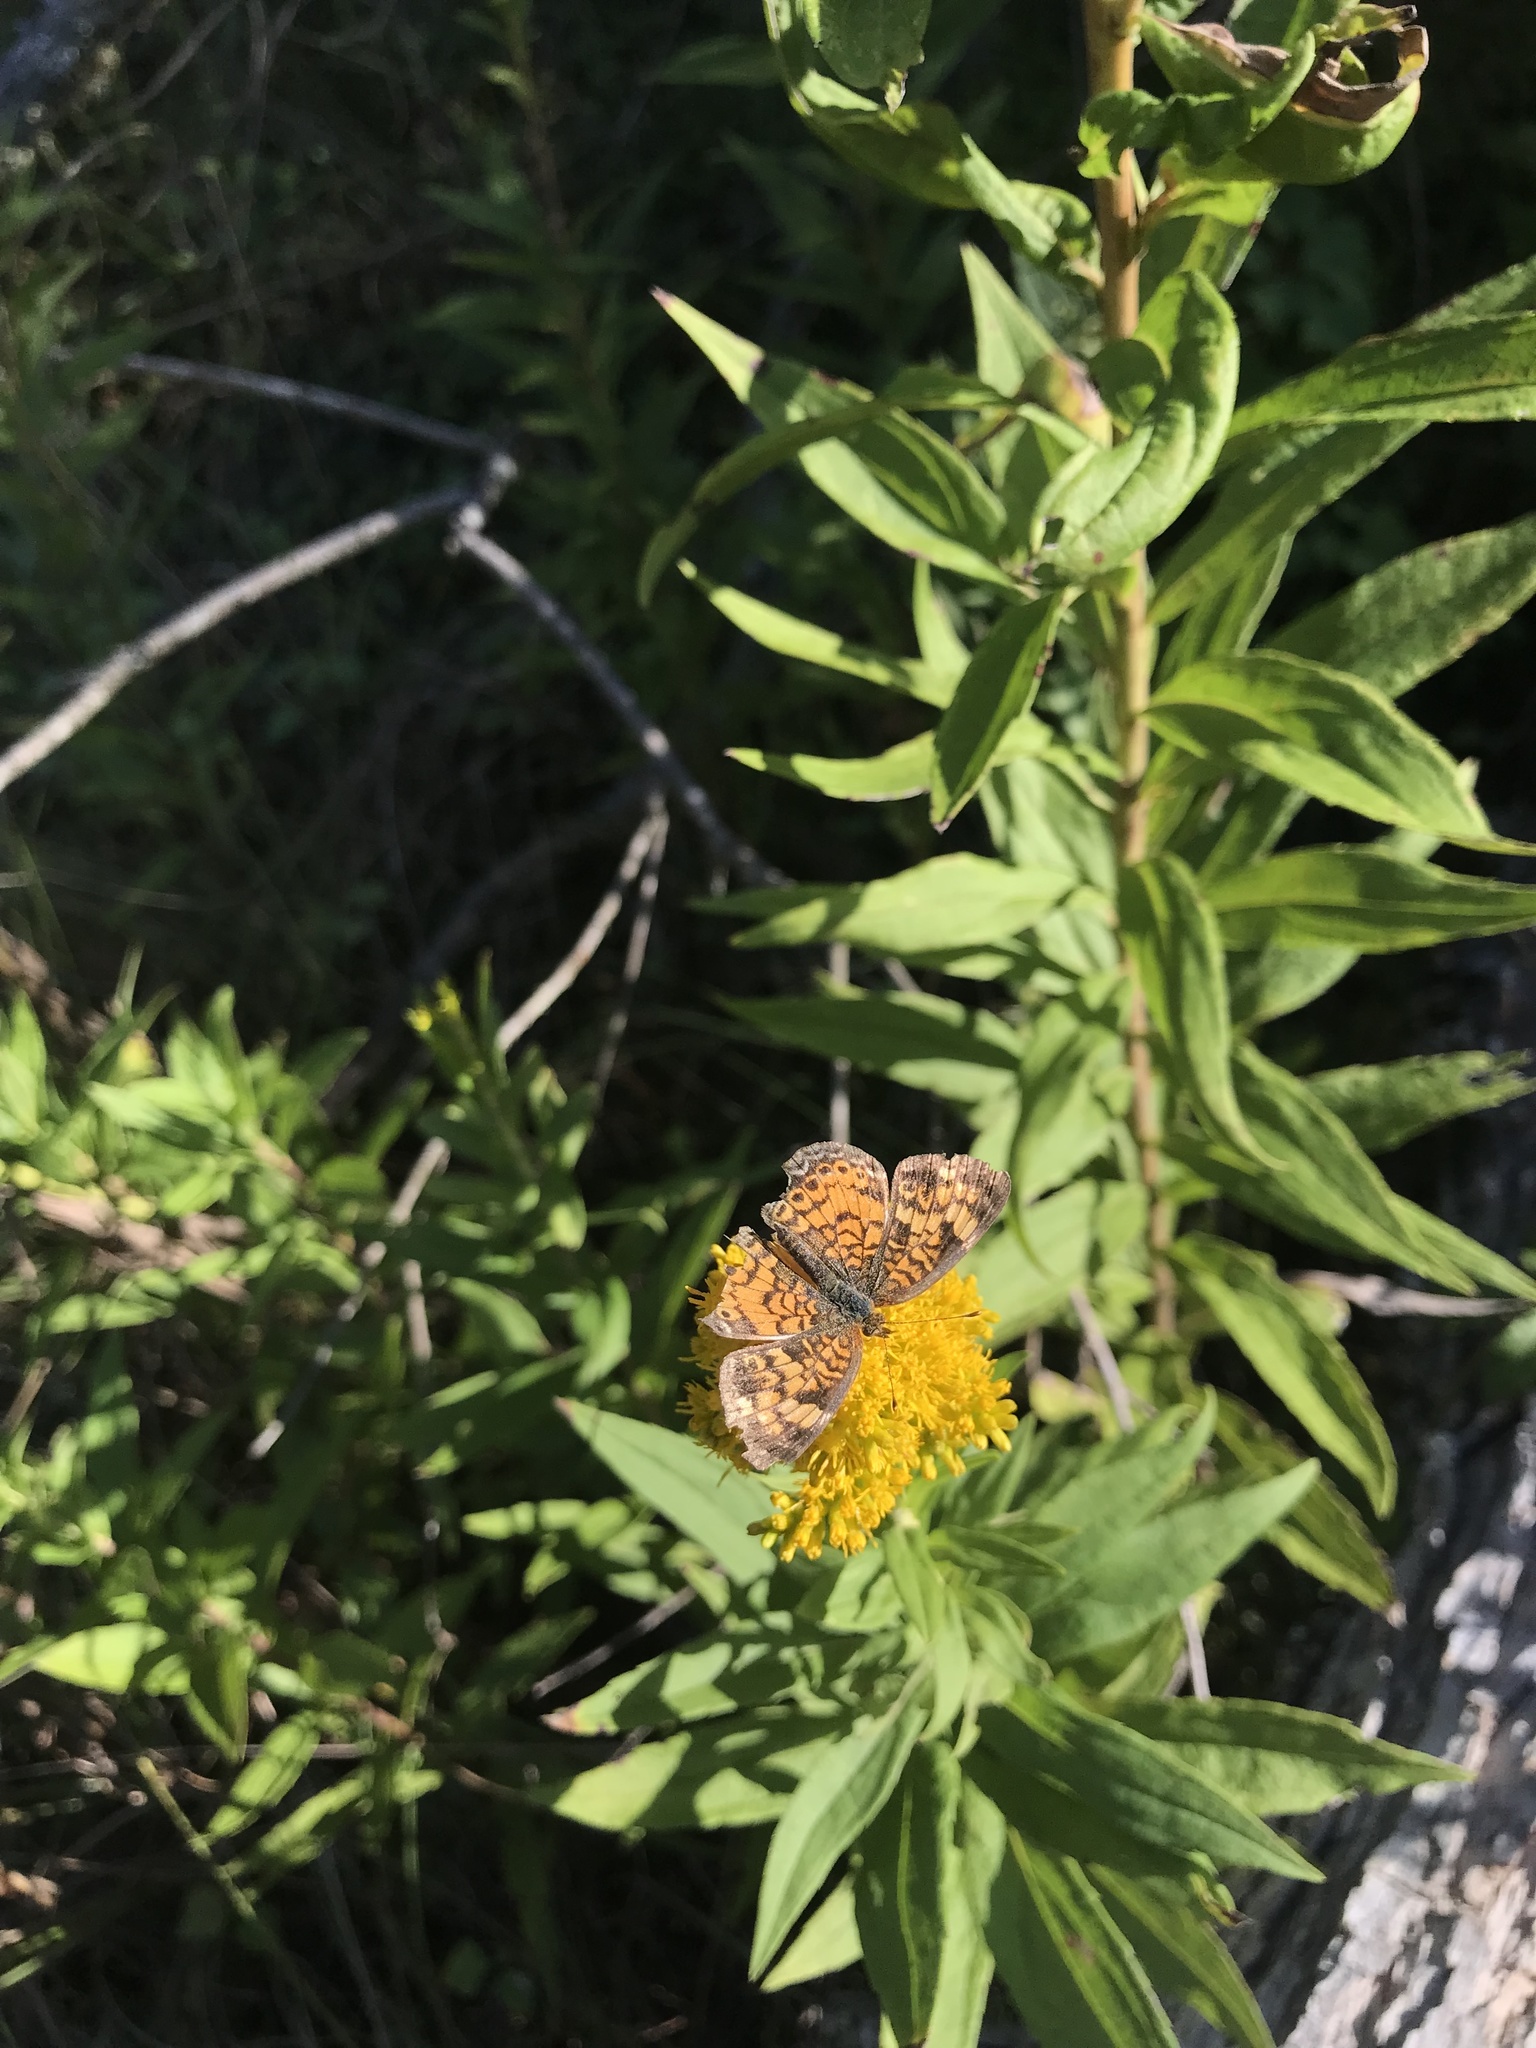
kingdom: Animalia
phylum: Arthropoda
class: Insecta
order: Lepidoptera
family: Nymphalidae
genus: Phyciodes
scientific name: Phyciodes tharos
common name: Pearl crescent
